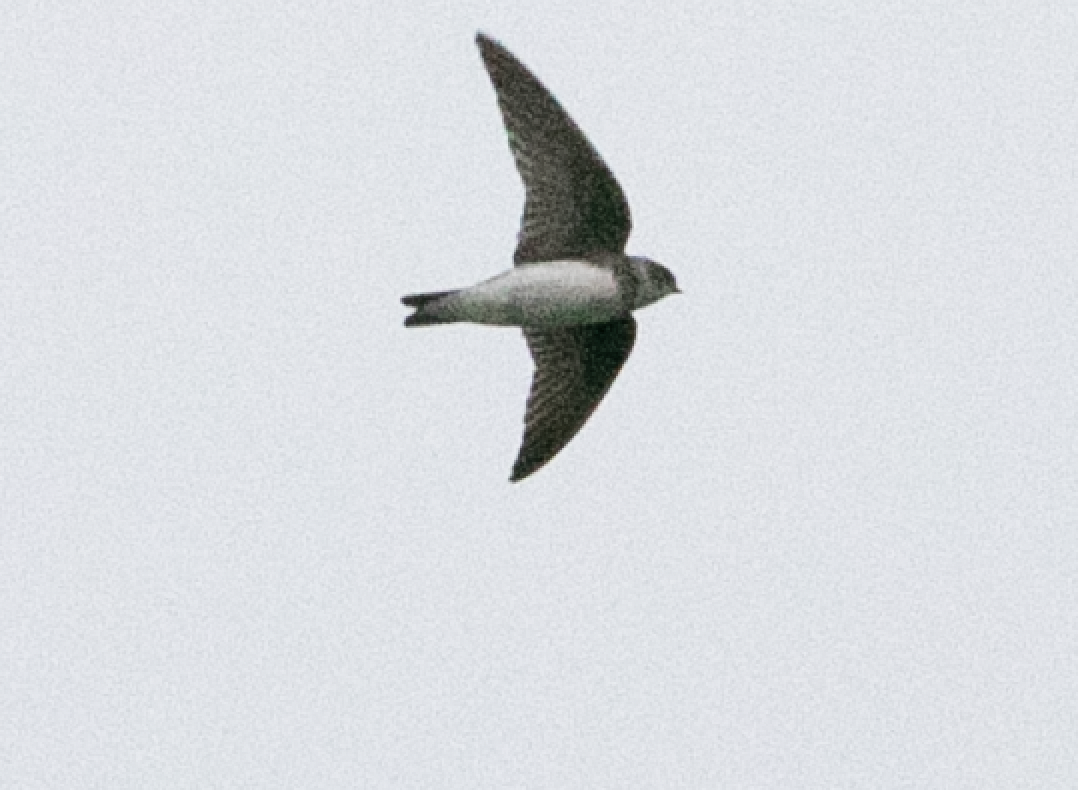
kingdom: Animalia
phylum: Chordata
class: Aves
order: Passeriformes
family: Hirundinidae
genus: Riparia
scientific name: Riparia riparia
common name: Sand martin
